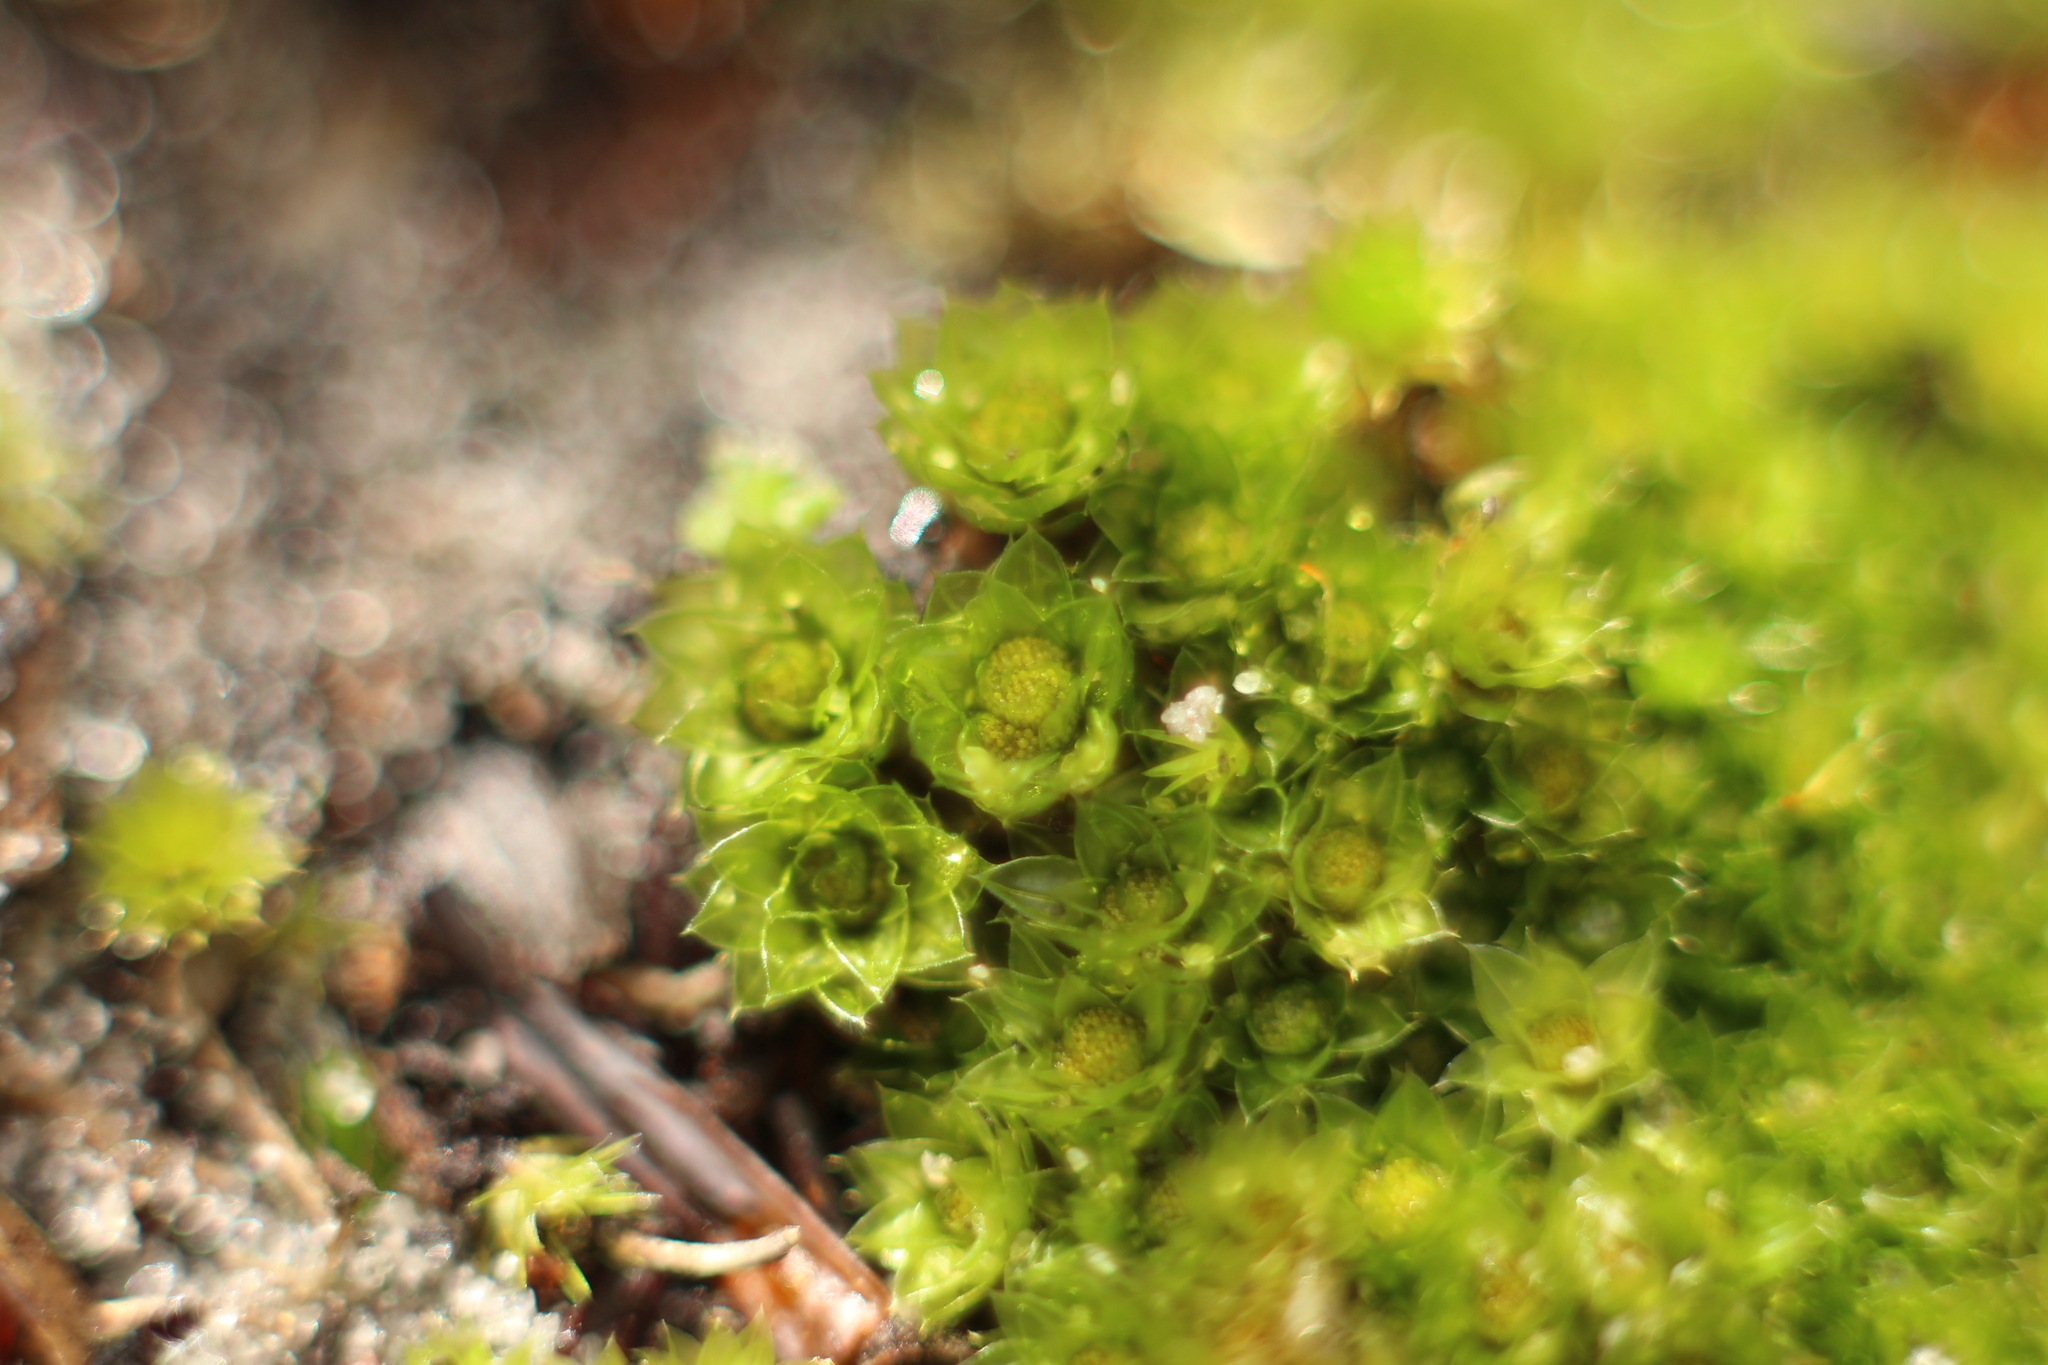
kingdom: Plantae
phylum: Bryophyta
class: Bryopsida
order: Bryales
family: Bryaceae
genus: Rosulabryum
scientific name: Rosulabryum billardierei
